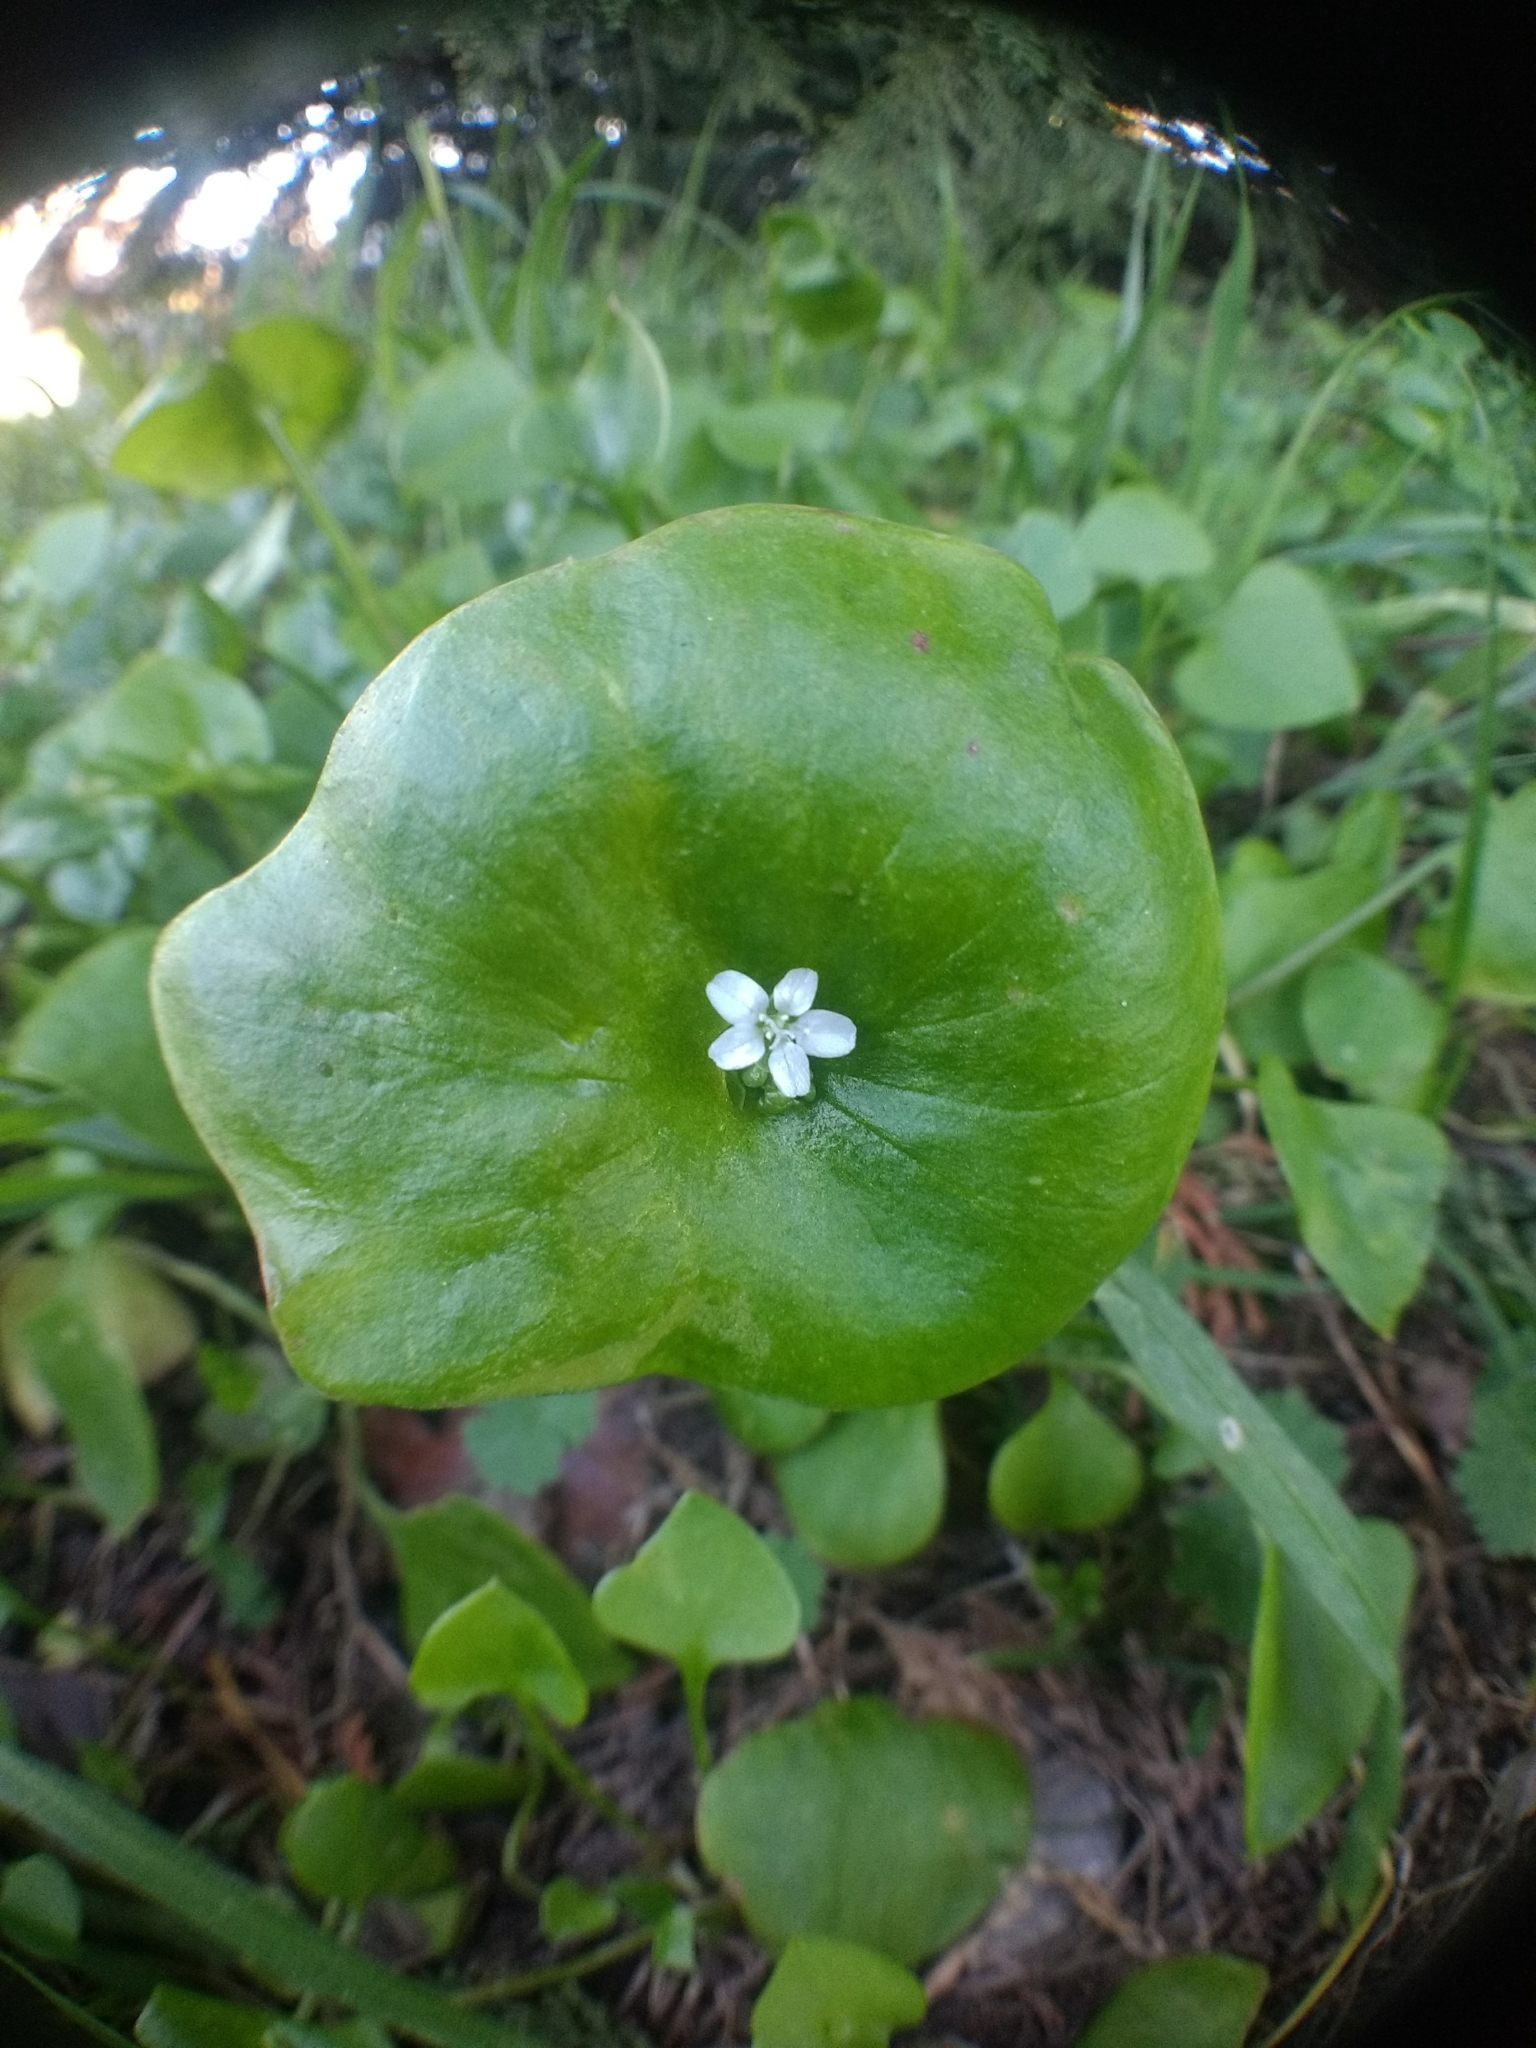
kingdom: Plantae
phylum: Tracheophyta
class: Magnoliopsida
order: Caryophyllales
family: Montiaceae
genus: Claytonia
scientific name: Claytonia perfoliata
